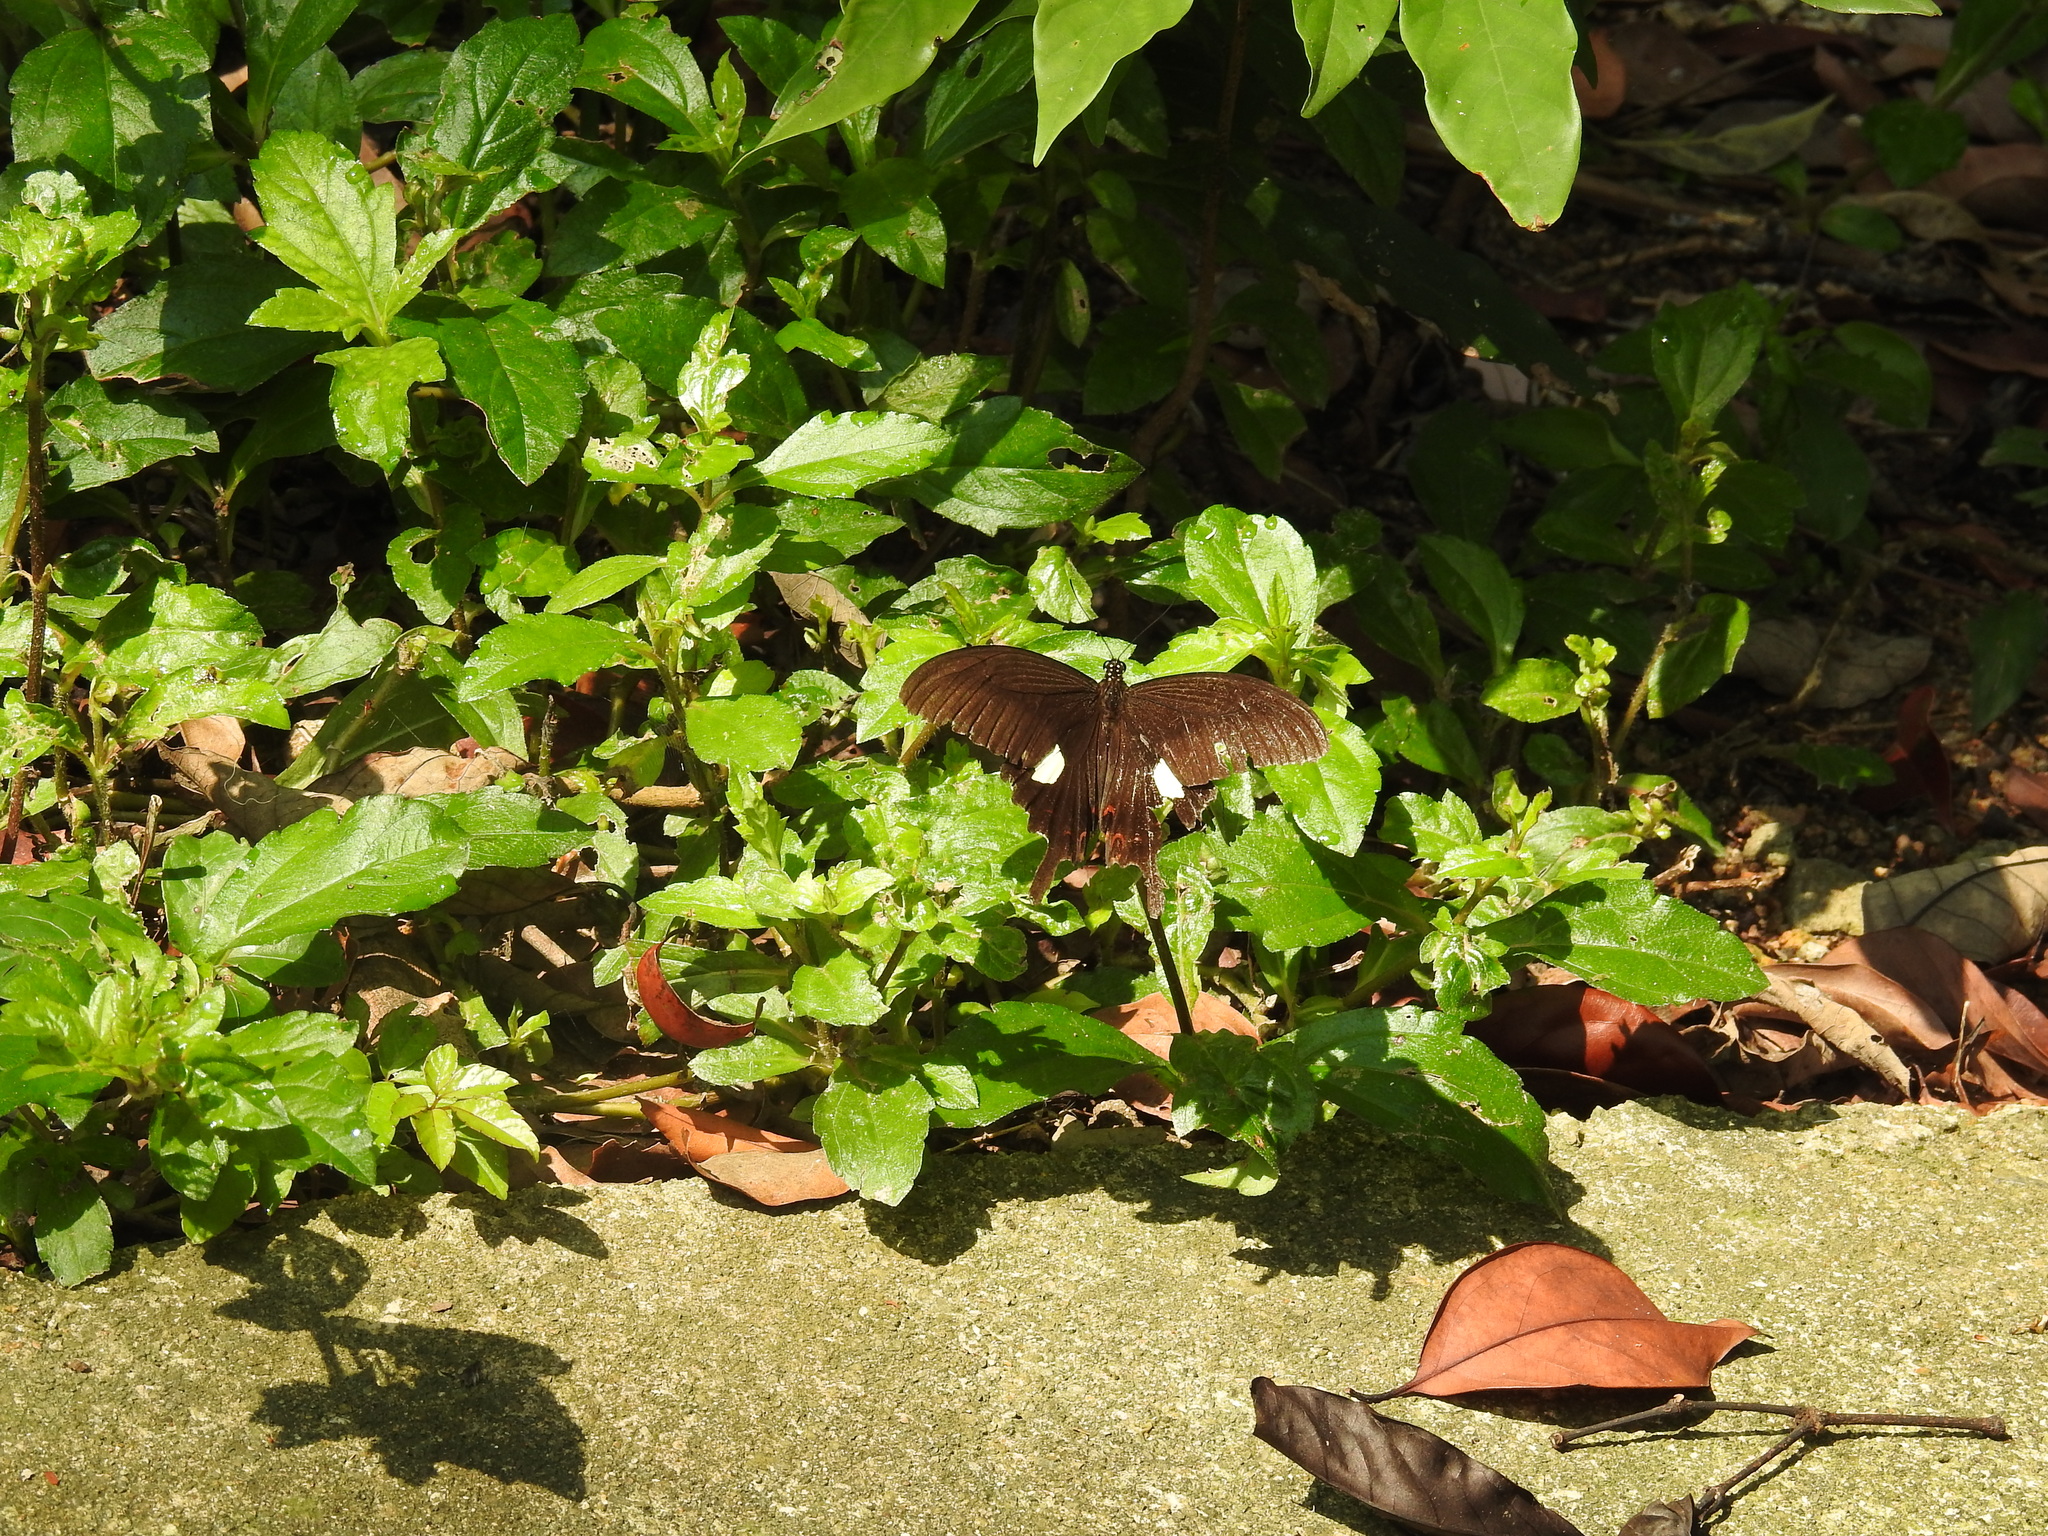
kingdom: Animalia
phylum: Arthropoda
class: Insecta
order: Lepidoptera
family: Papilionidae
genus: Papilio
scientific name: Papilio helenus
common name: Red helen
